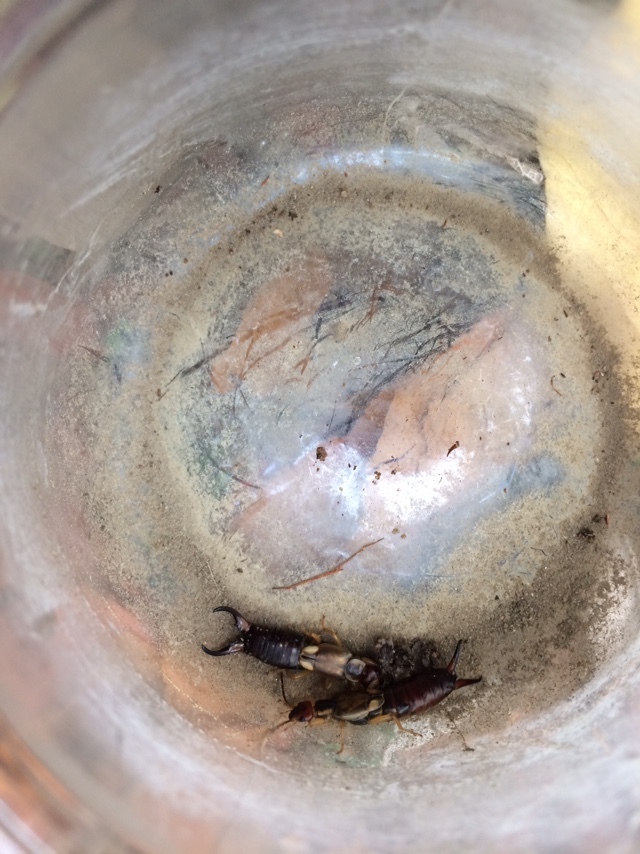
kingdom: Animalia
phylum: Arthropoda
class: Insecta
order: Dermaptera
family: Forficulidae
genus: Forficula
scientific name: Forficula
